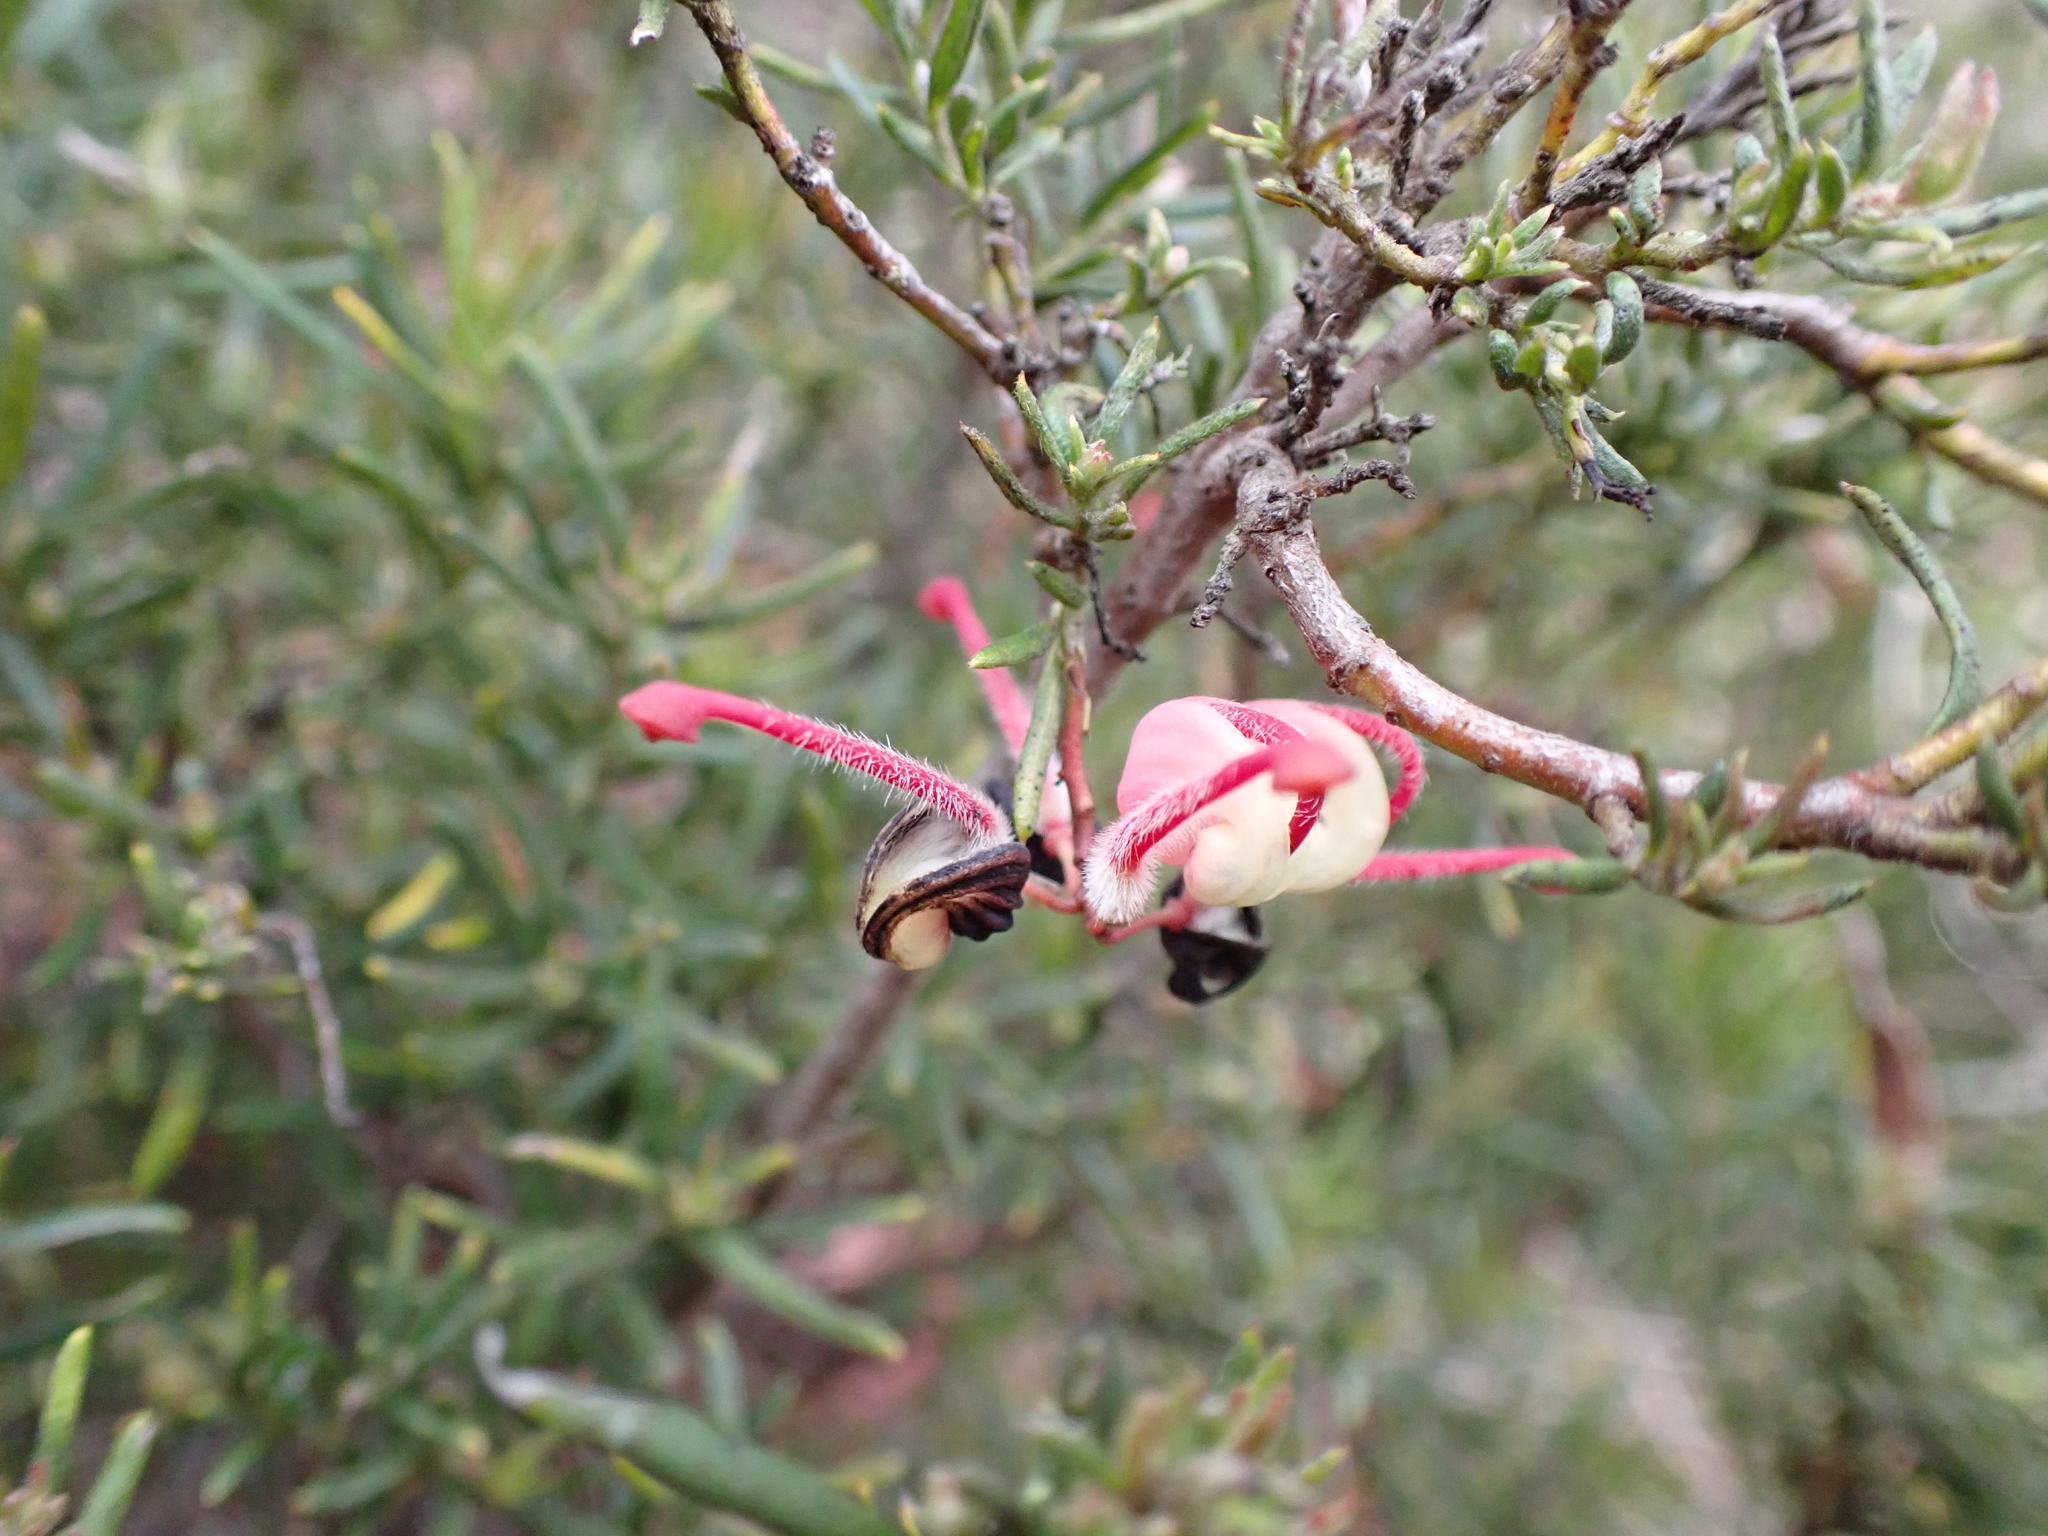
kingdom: Plantae
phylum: Tracheophyta
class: Magnoliopsida
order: Proteales
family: Proteaceae
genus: Grevillea
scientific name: Grevillea lanigera
